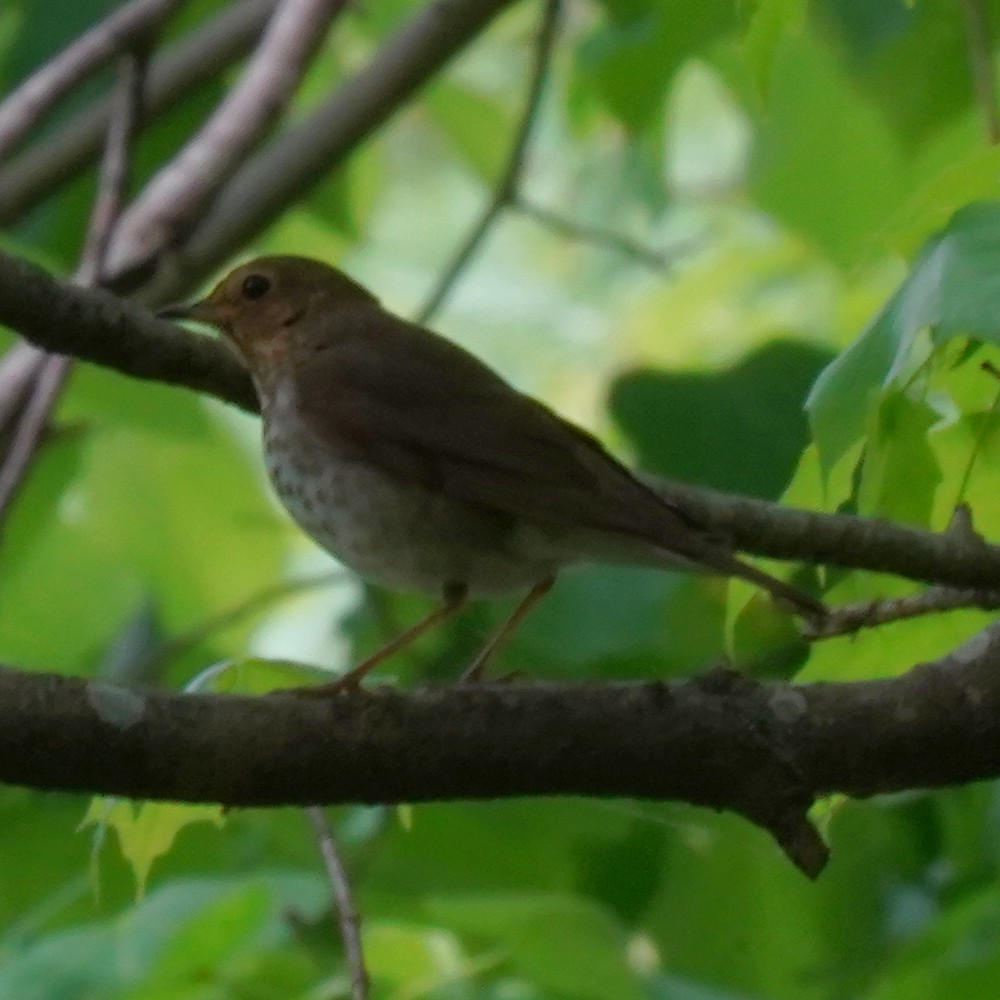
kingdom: Animalia
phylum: Chordata
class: Aves
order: Passeriformes
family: Turdidae
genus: Catharus
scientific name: Catharus ustulatus
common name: Swainson's thrush
